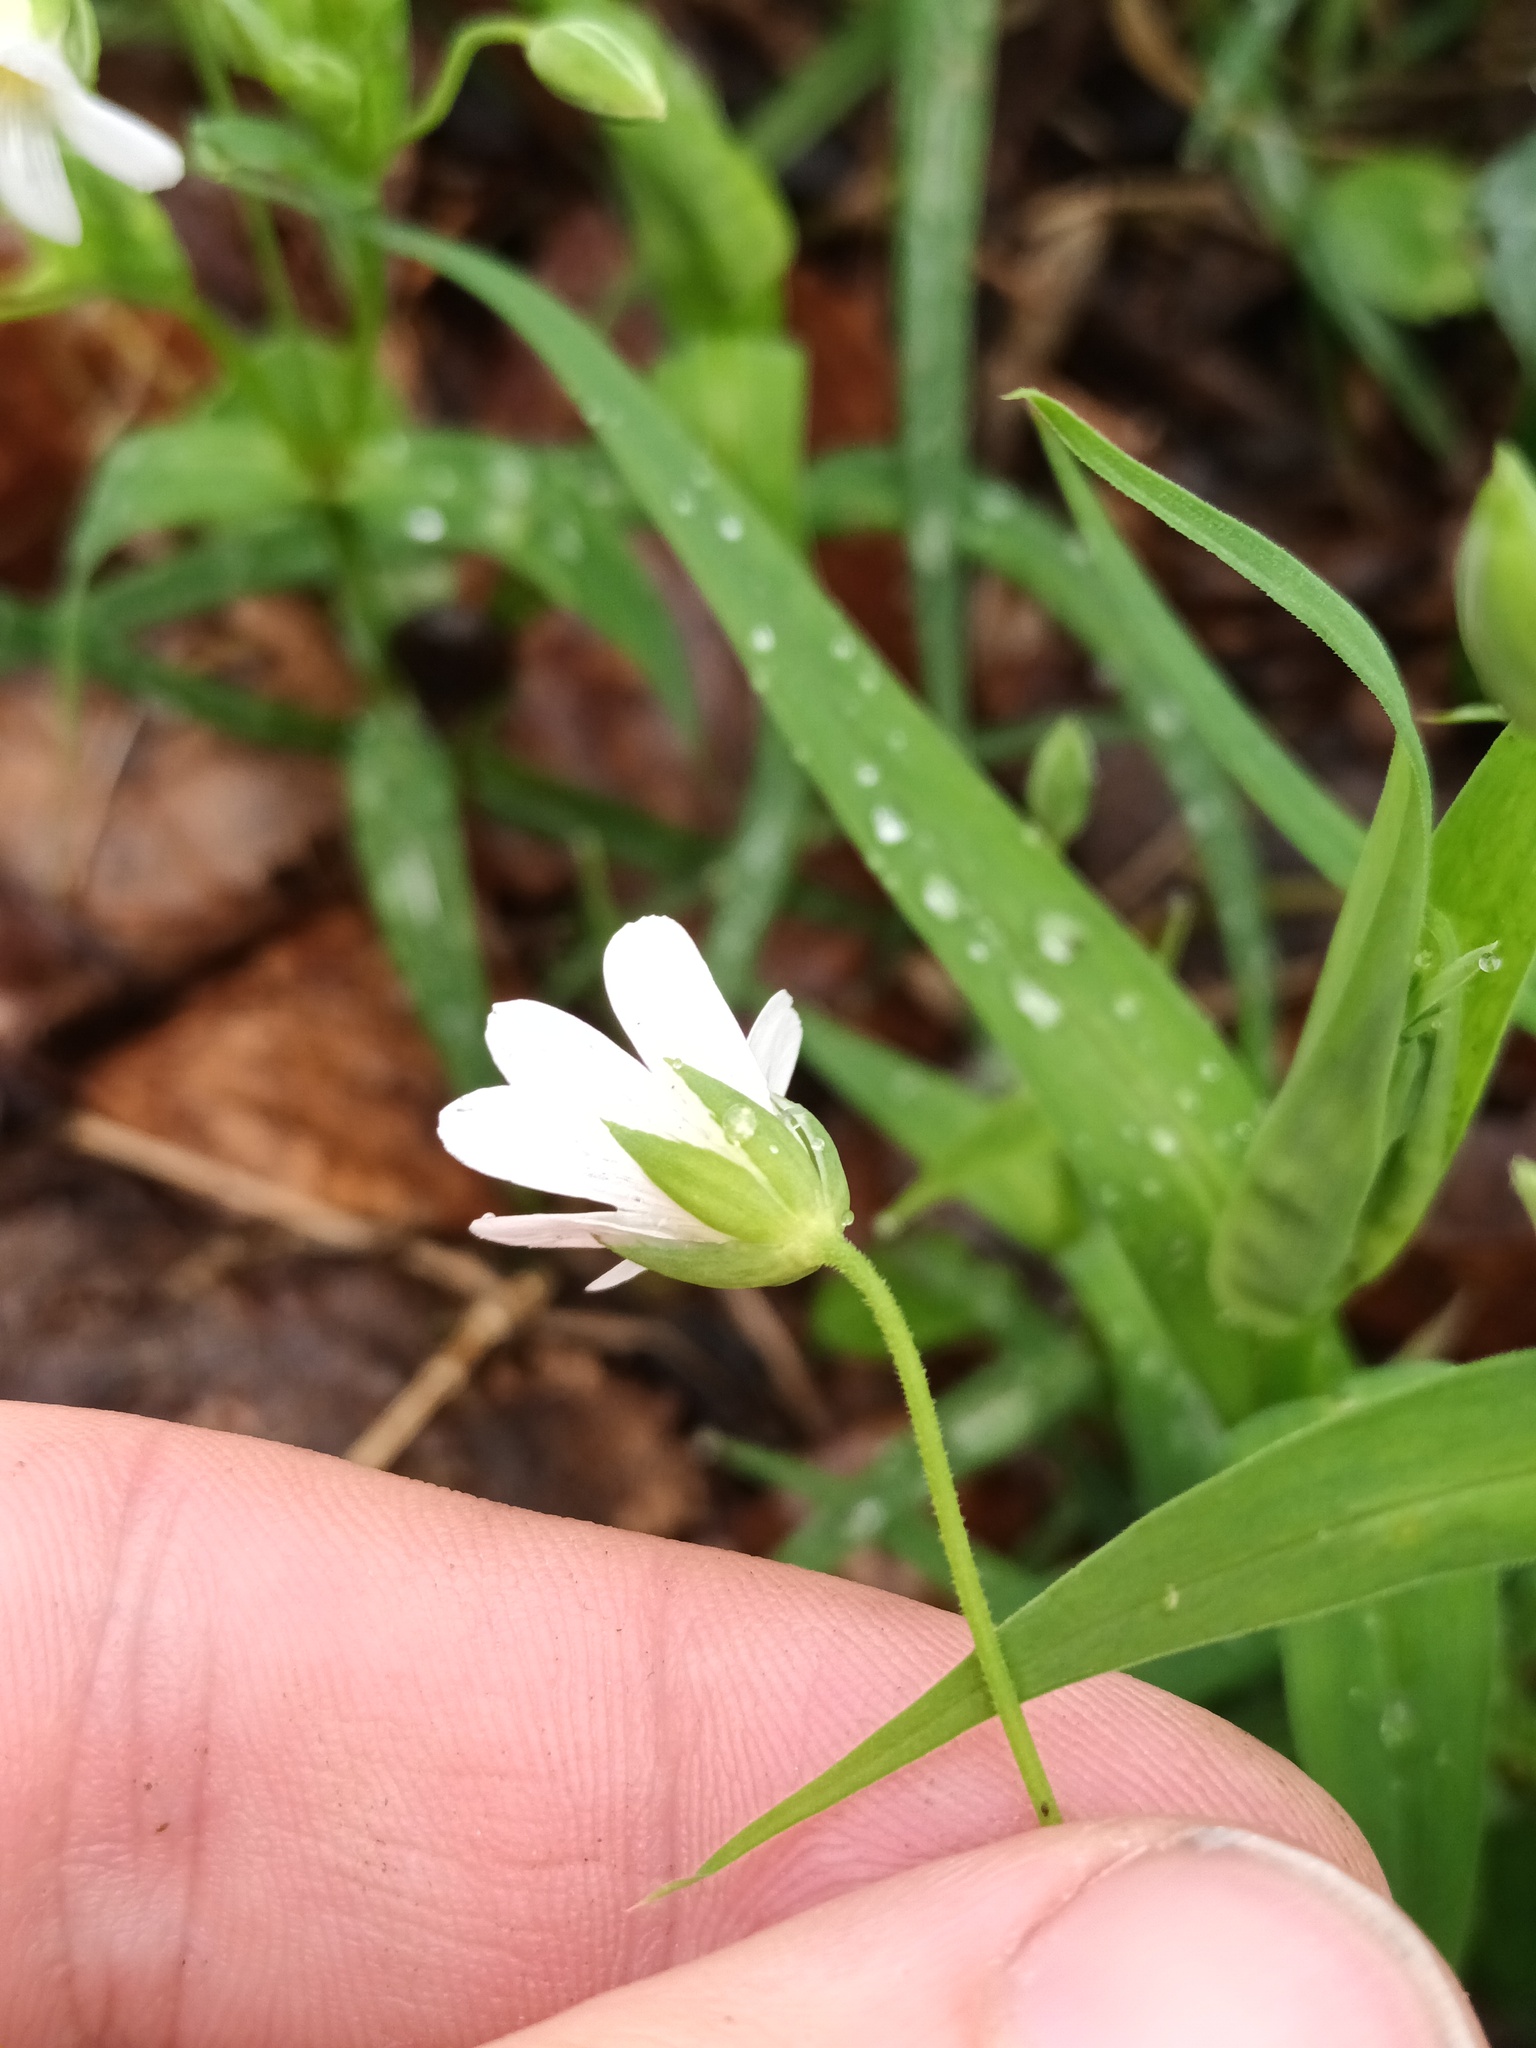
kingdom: Plantae
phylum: Tracheophyta
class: Magnoliopsida
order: Caryophyllales
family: Caryophyllaceae
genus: Rabelera
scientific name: Rabelera holostea
